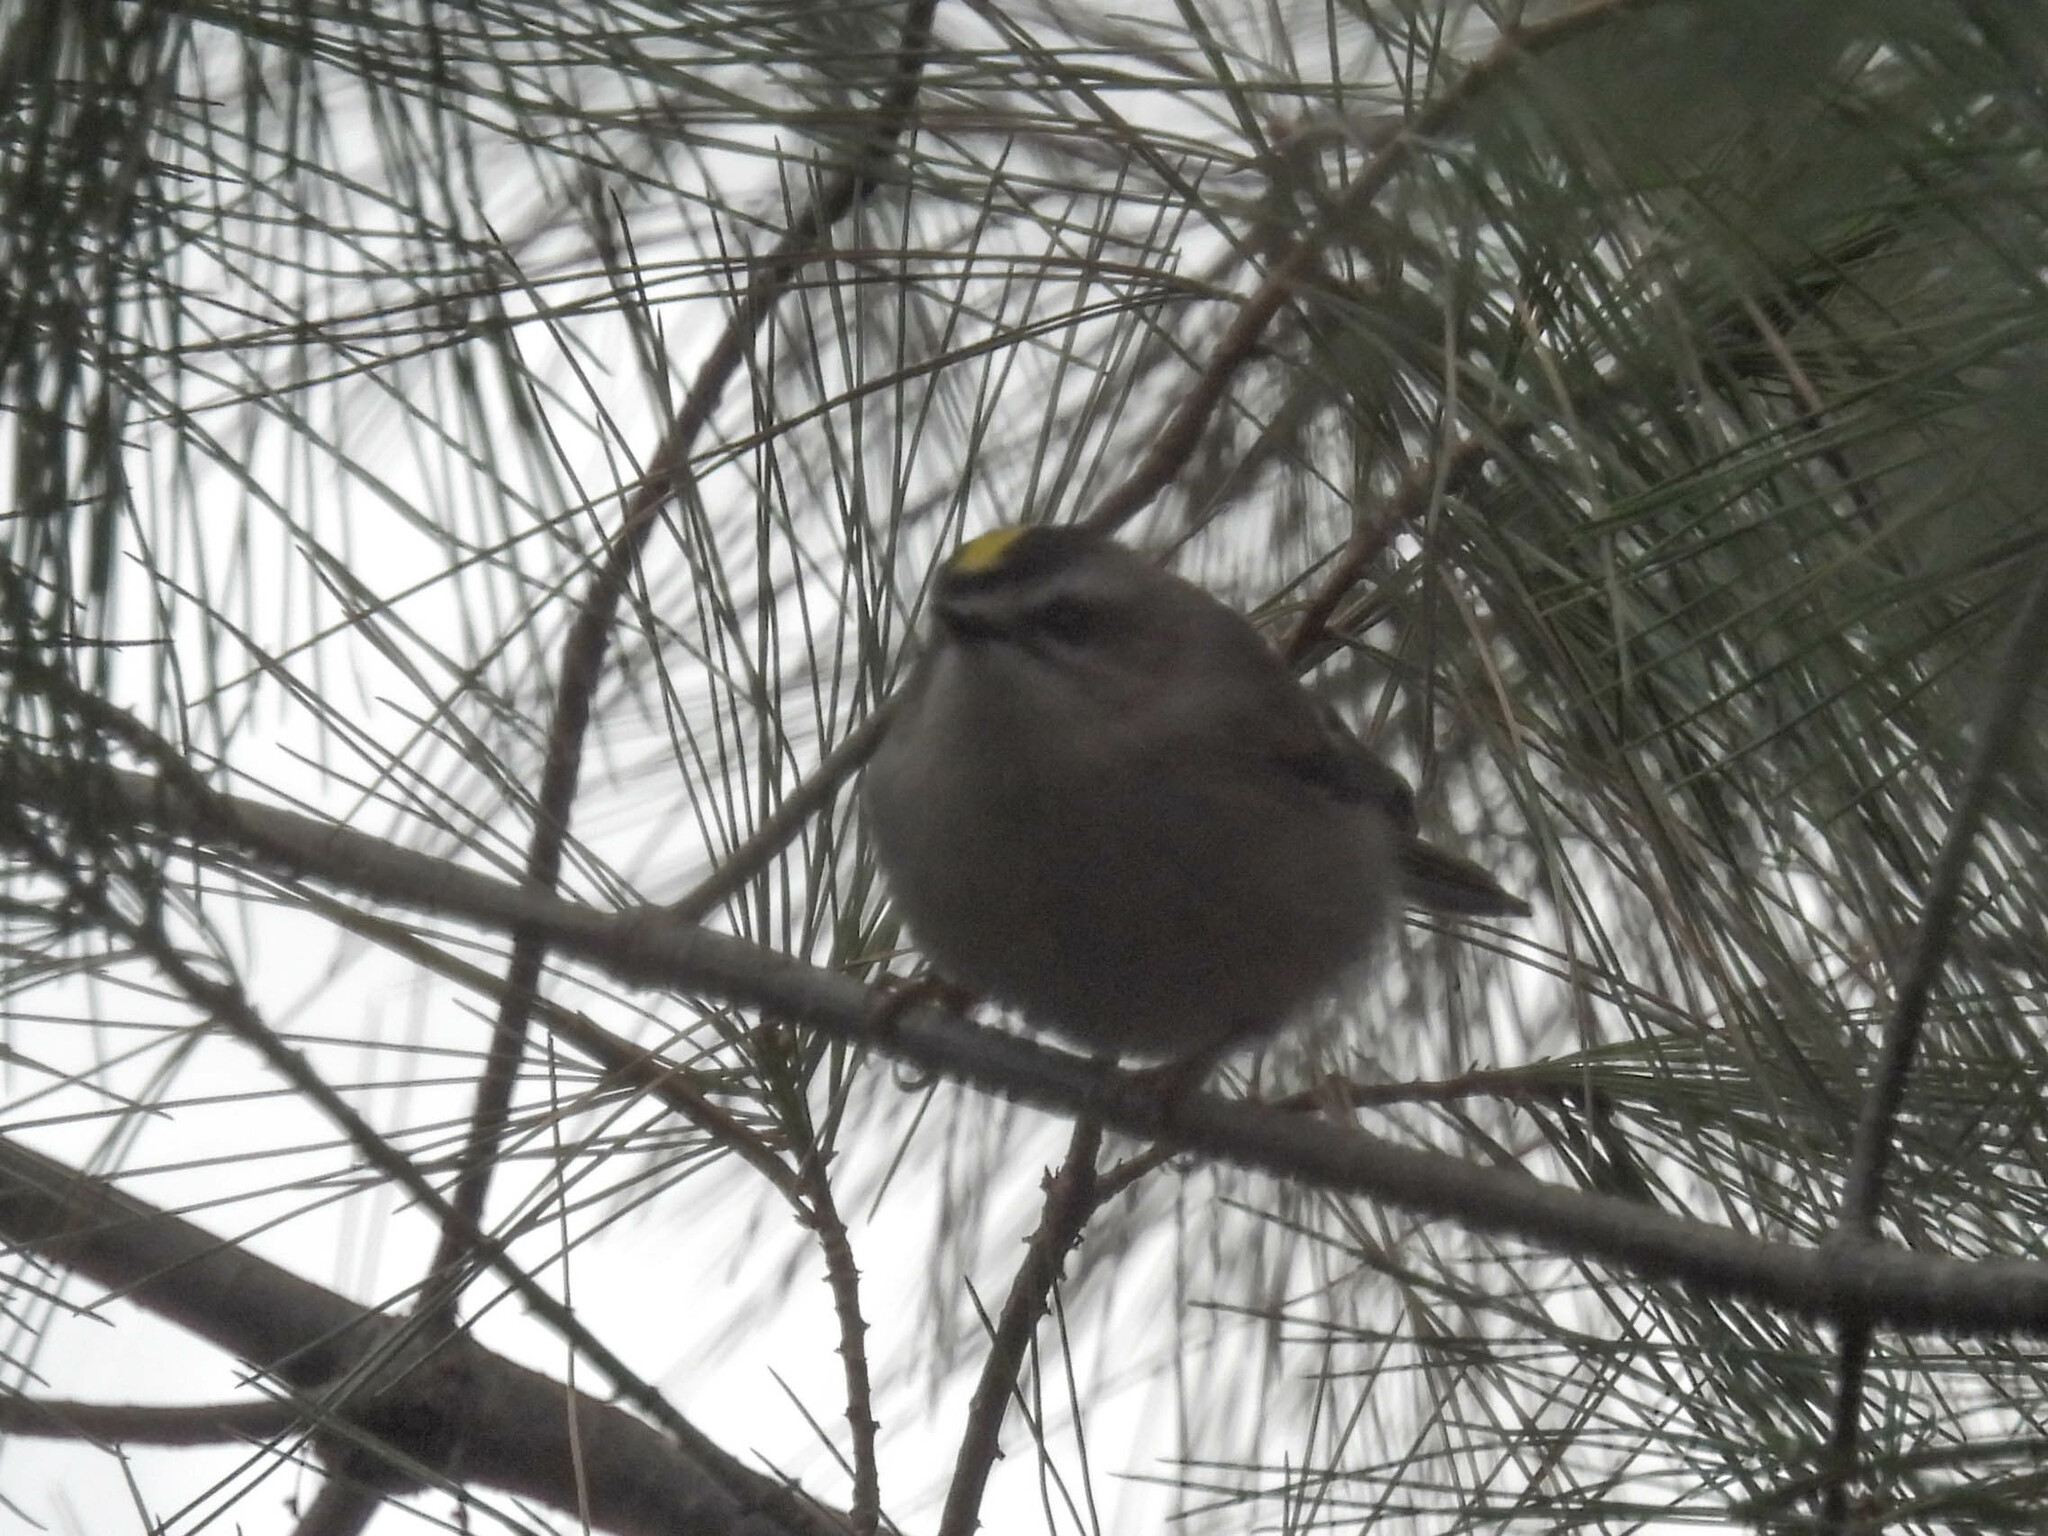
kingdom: Animalia
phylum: Chordata
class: Aves
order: Passeriformes
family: Regulidae
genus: Regulus
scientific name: Regulus satrapa
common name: Golden-crowned kinglet
